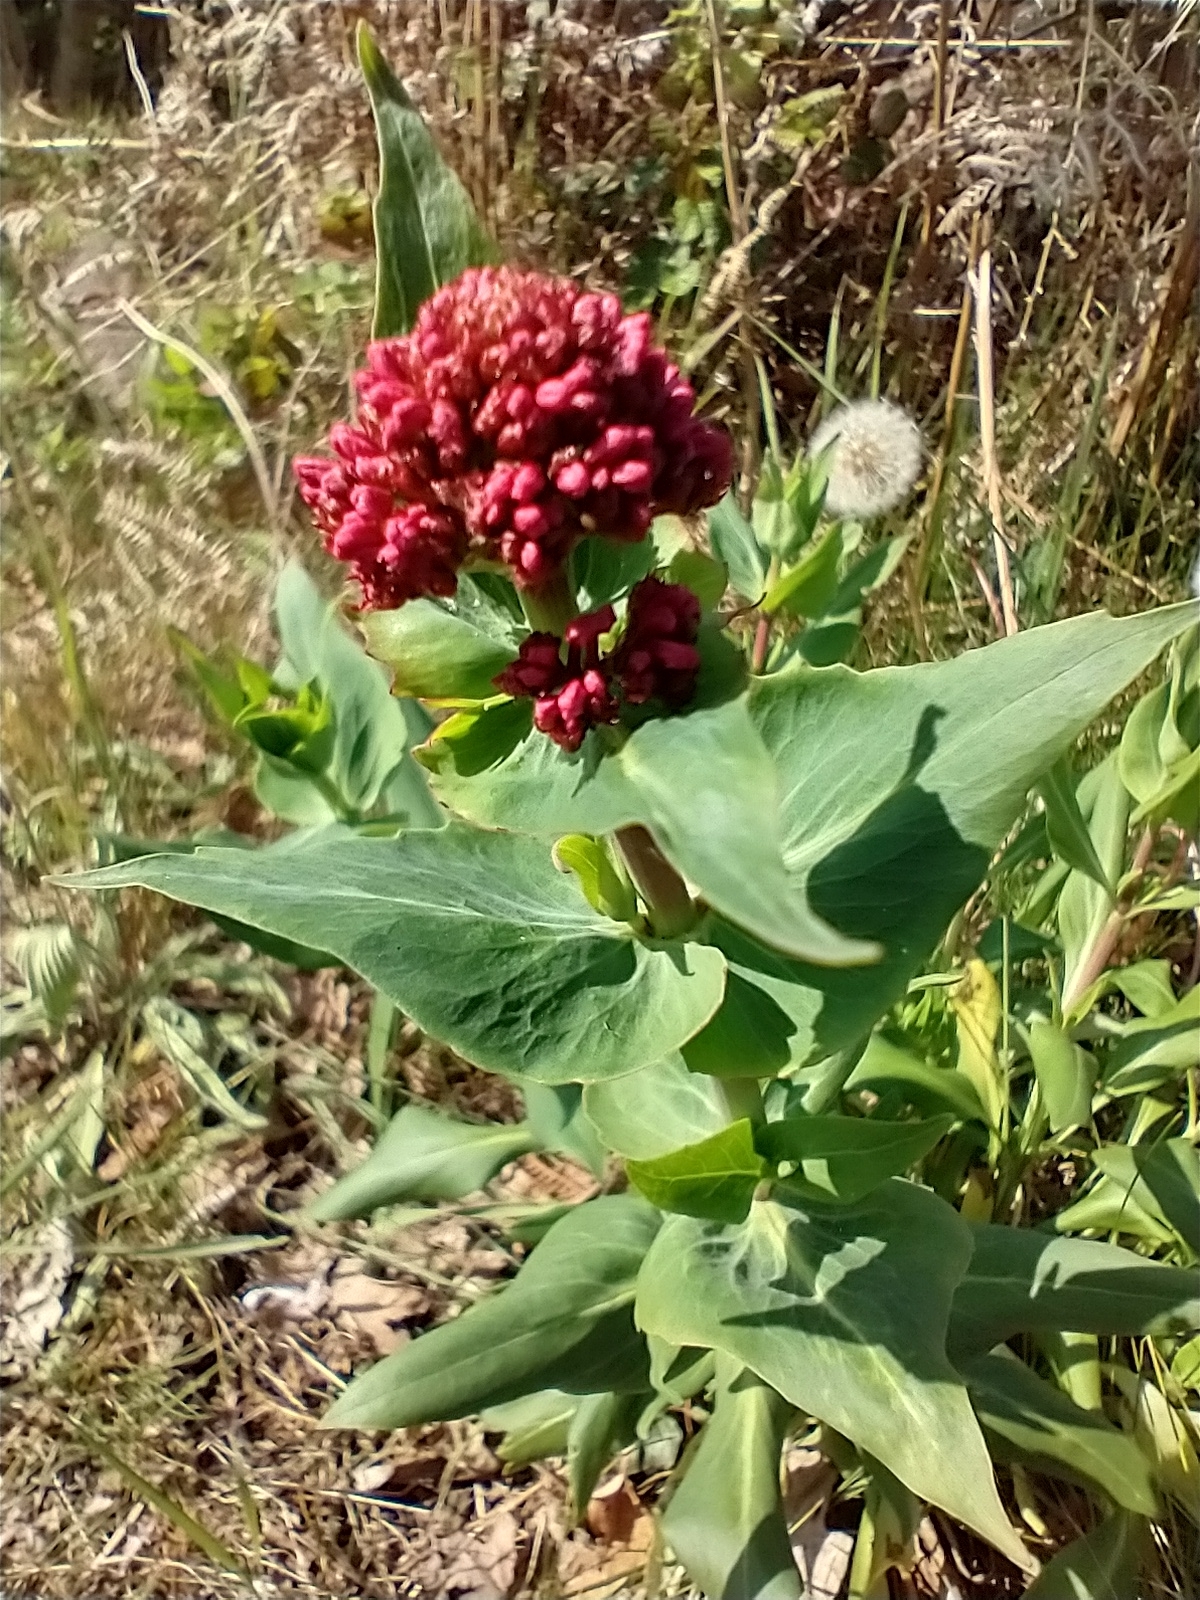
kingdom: Plantae
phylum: Tracheophyta
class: Magnoliopsida
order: Dipsacales
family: Caprifoliaceae
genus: Centranthus
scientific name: Centranthus ruber
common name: Red valerian
